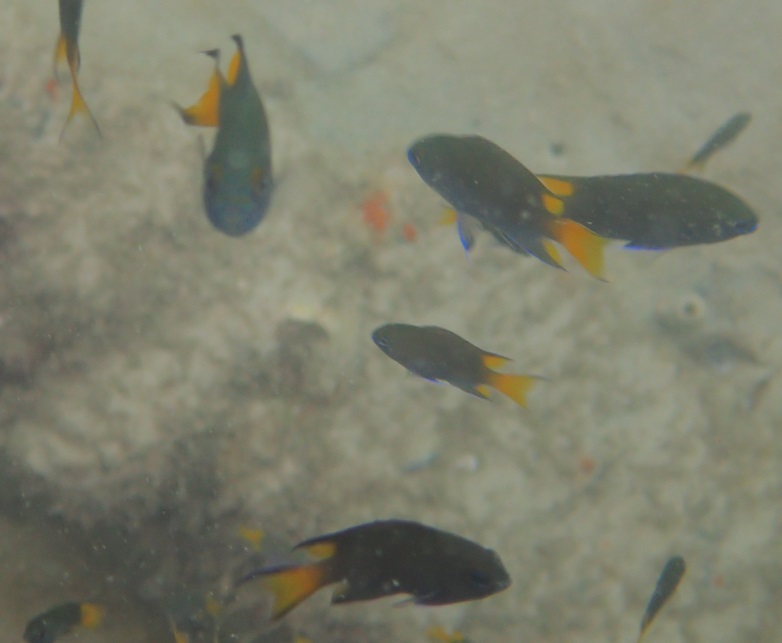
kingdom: Animalia
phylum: Chordata
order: Perciformes
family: Pomacentridae
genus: Neopomacentrus
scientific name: Neopomacentrus bankieri
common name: Chinese damsel
